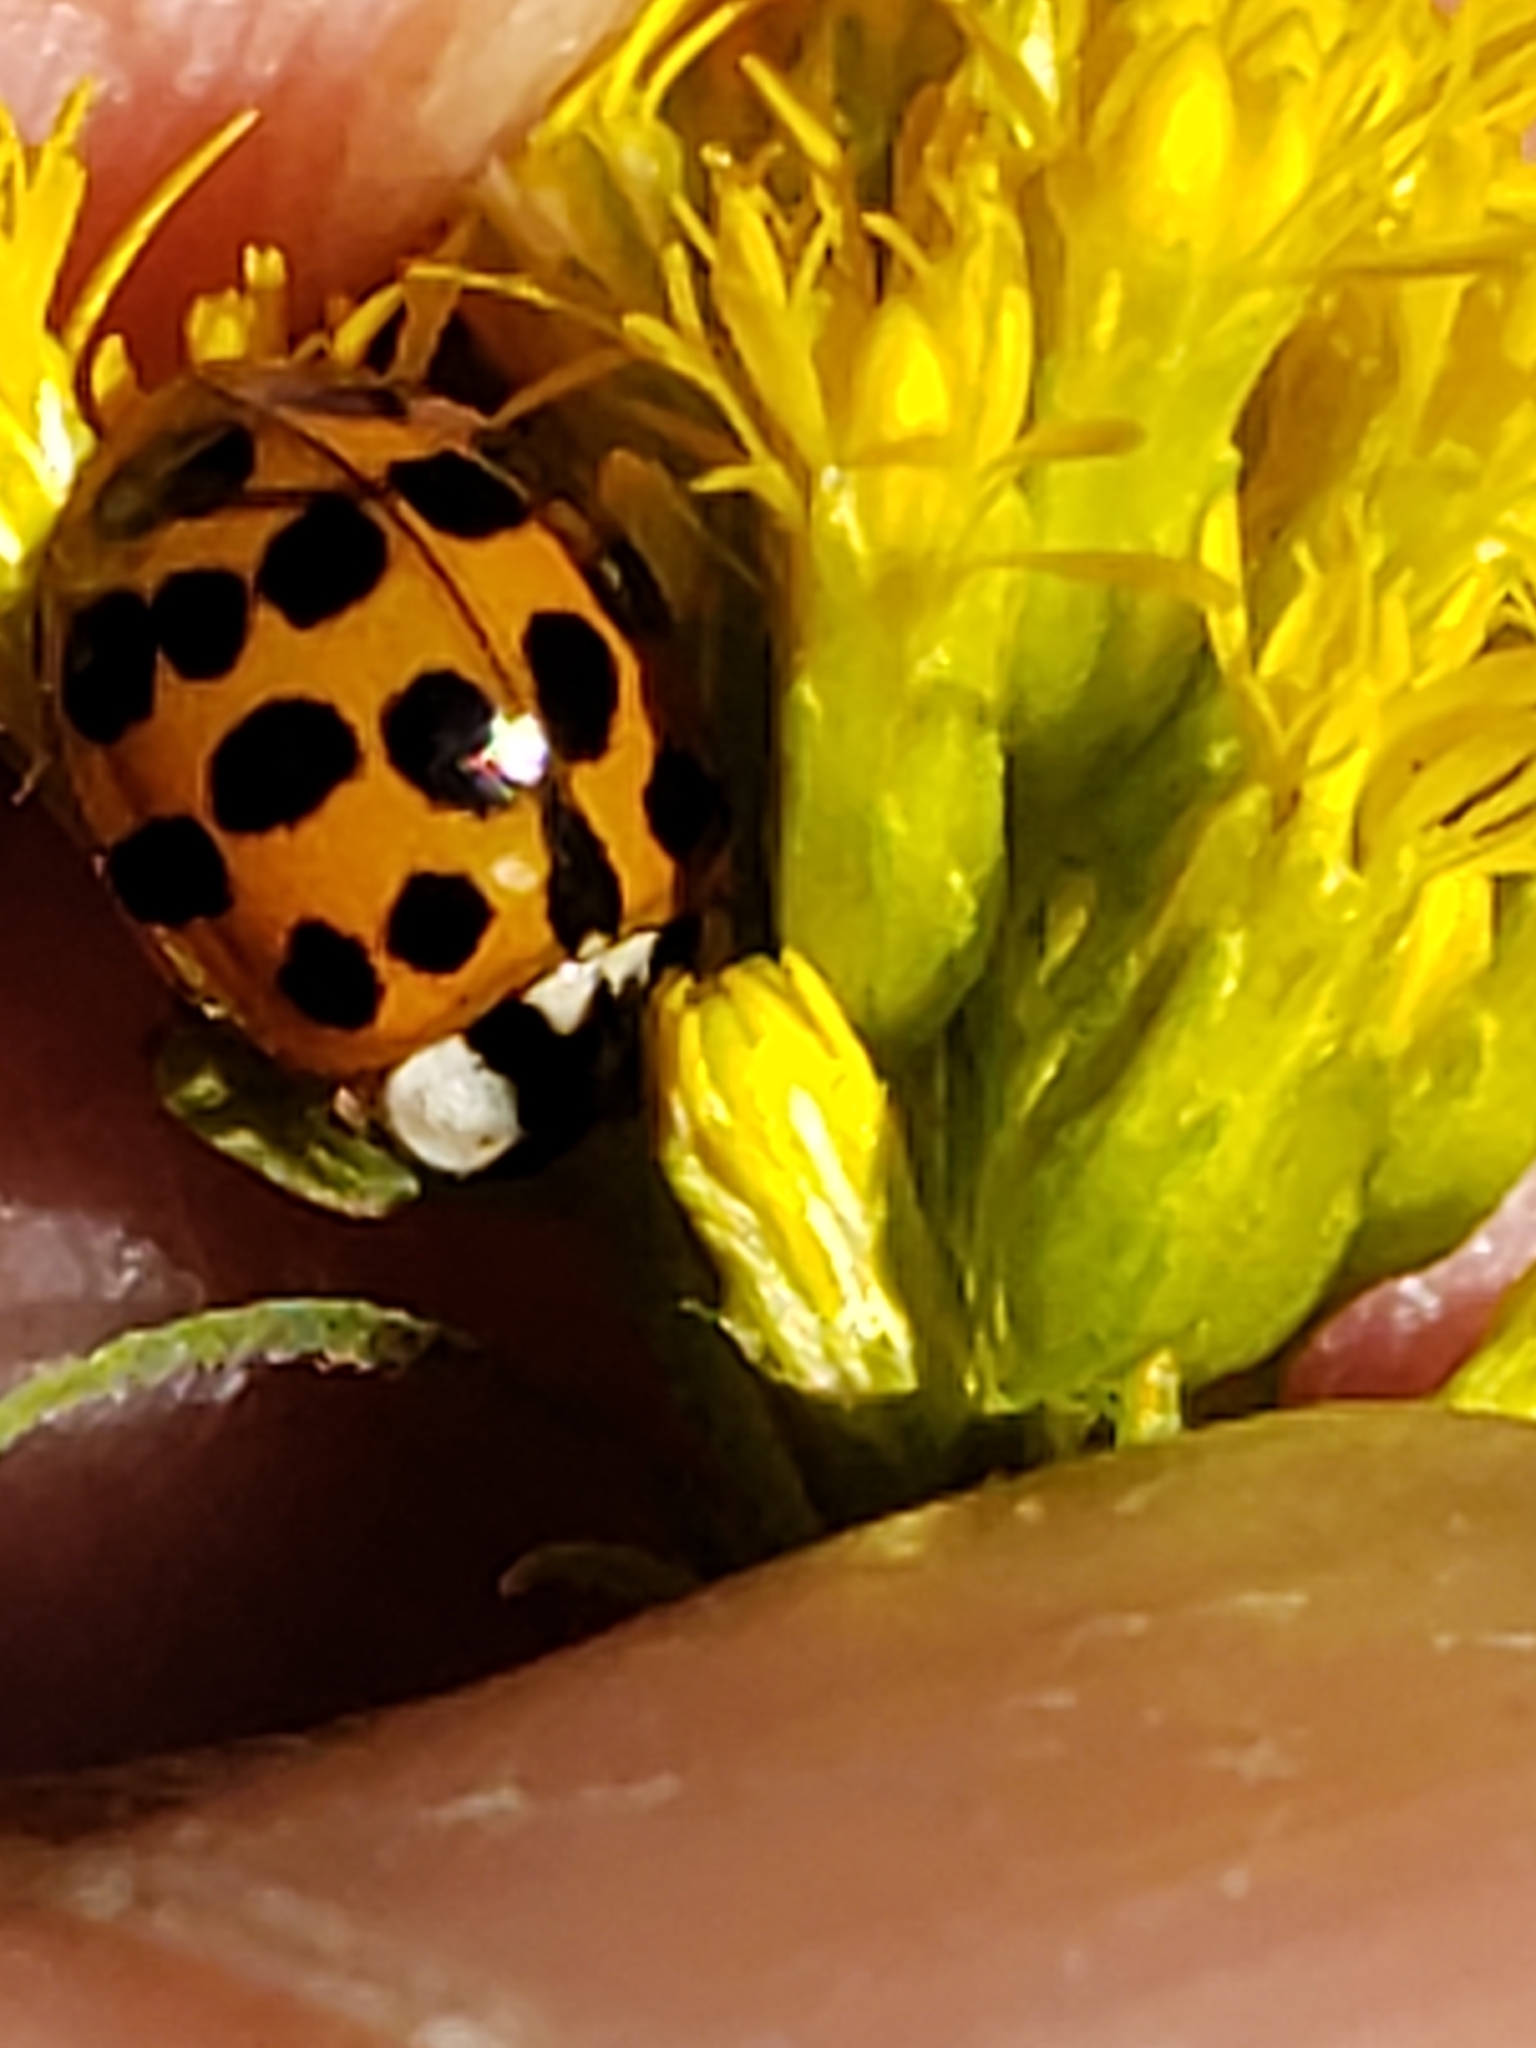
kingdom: Animalia
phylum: Arthropoda
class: Insecta
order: Coleoptera
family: Coccinellidae
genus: Harmonia
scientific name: Harmonia axyridis
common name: Harlequin ladybird
